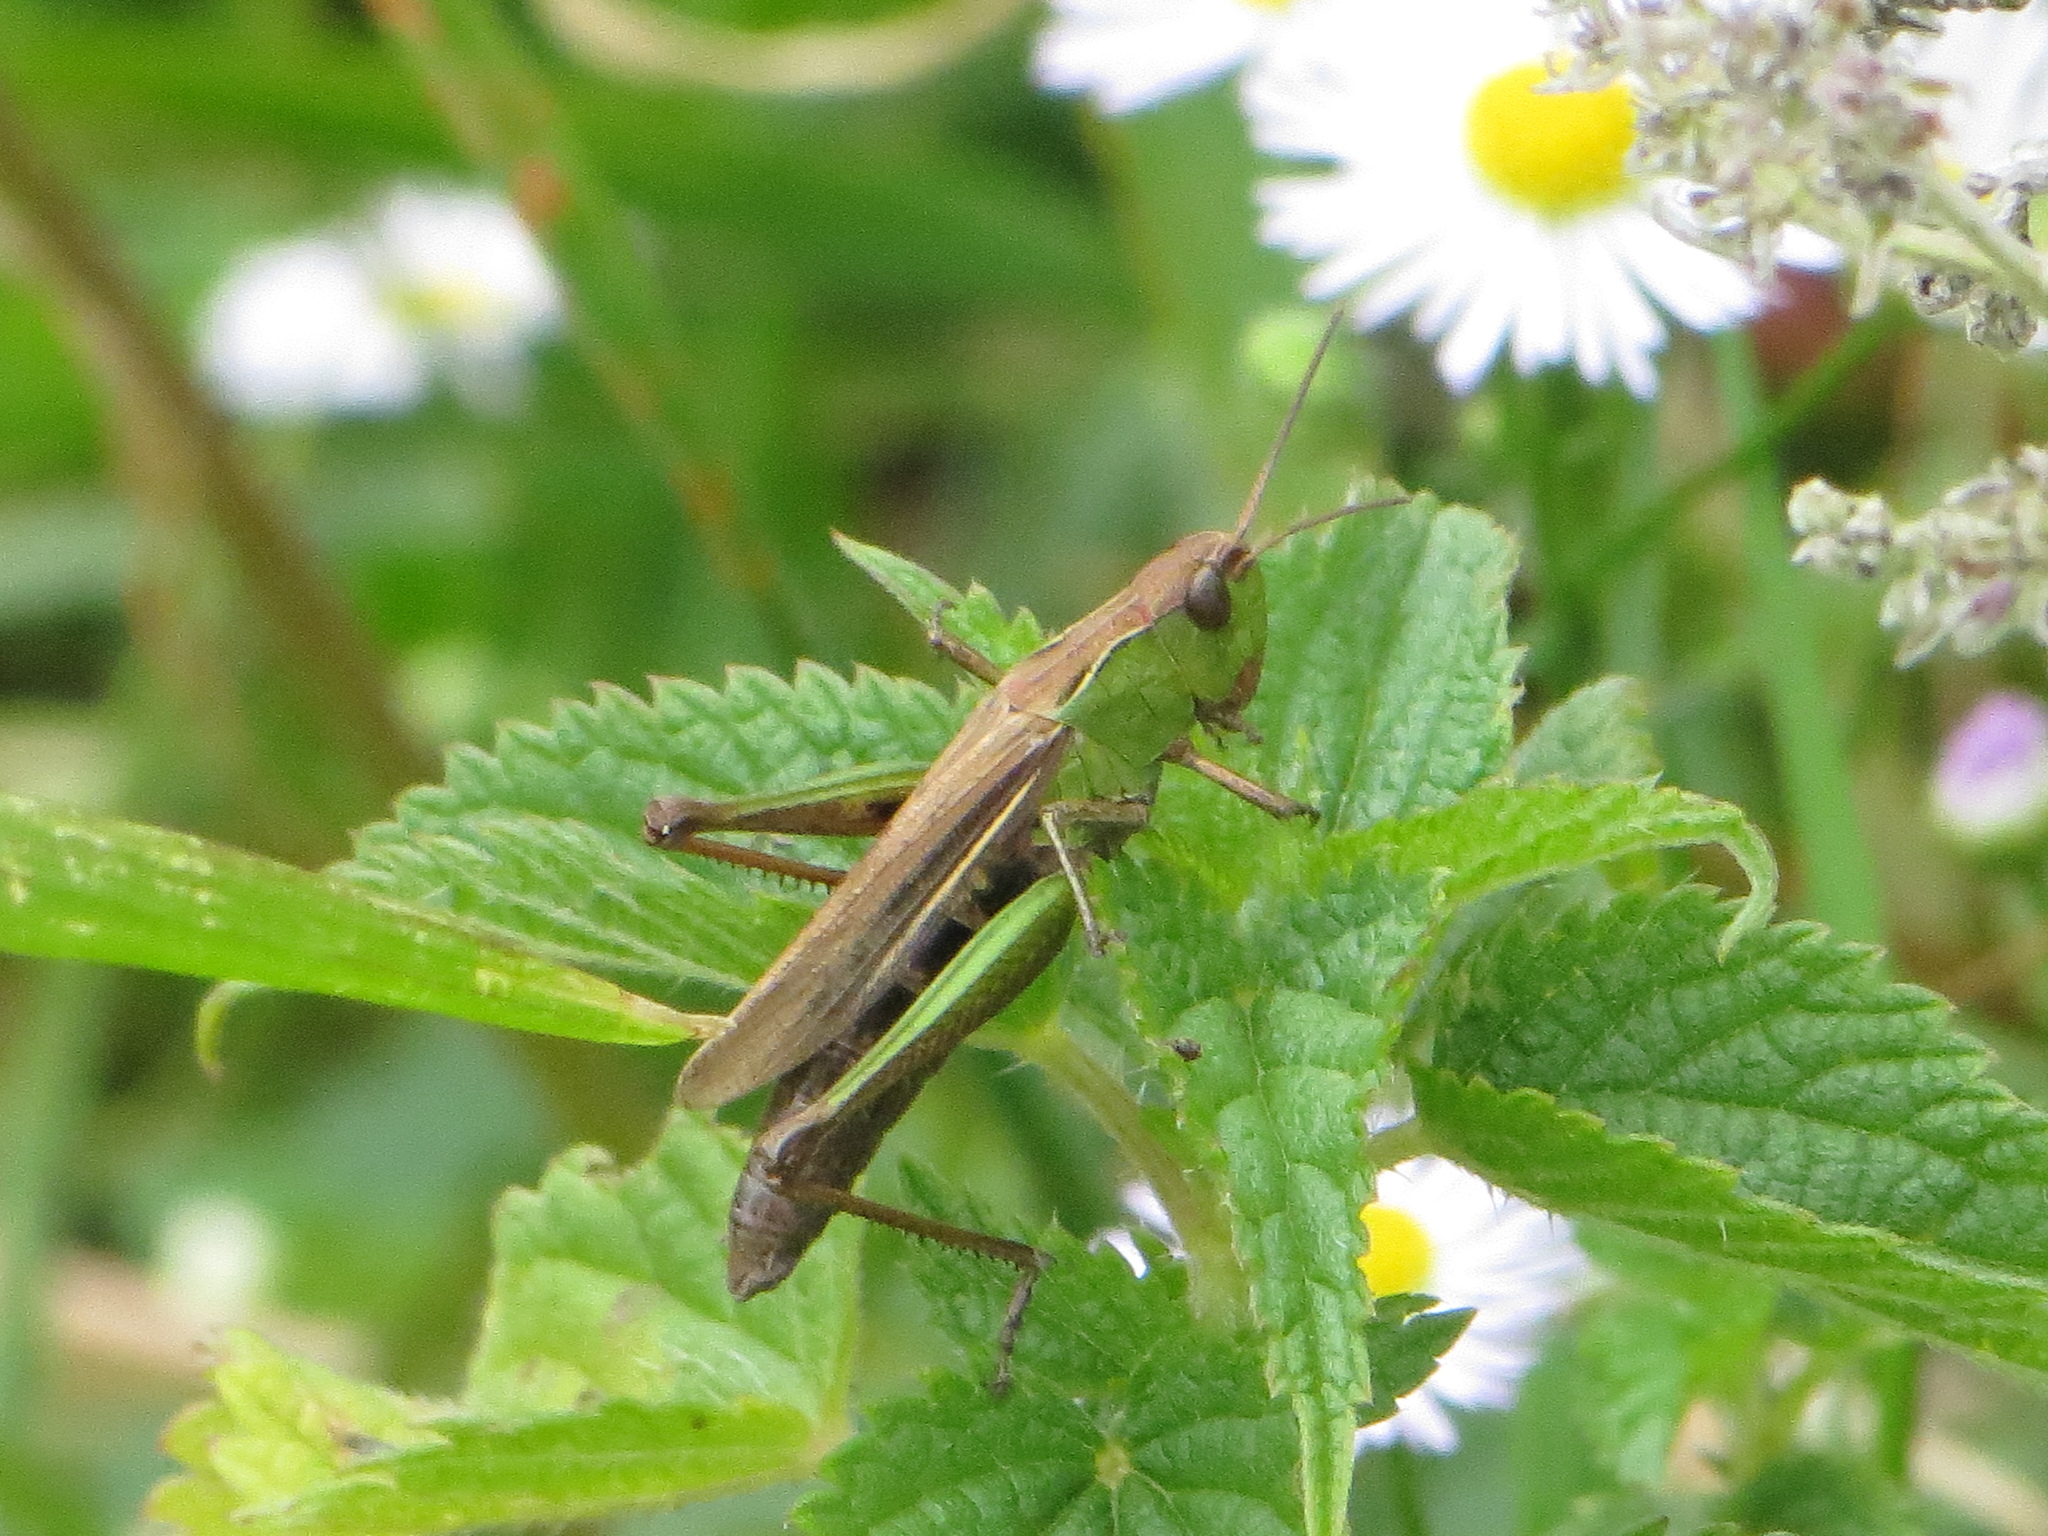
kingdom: Animalia
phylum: Arthropoda
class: Insecta
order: Orthoptera
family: Acrididae
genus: Chorthippus
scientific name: Chorthippus dorsatus
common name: Steppe grasshopper
